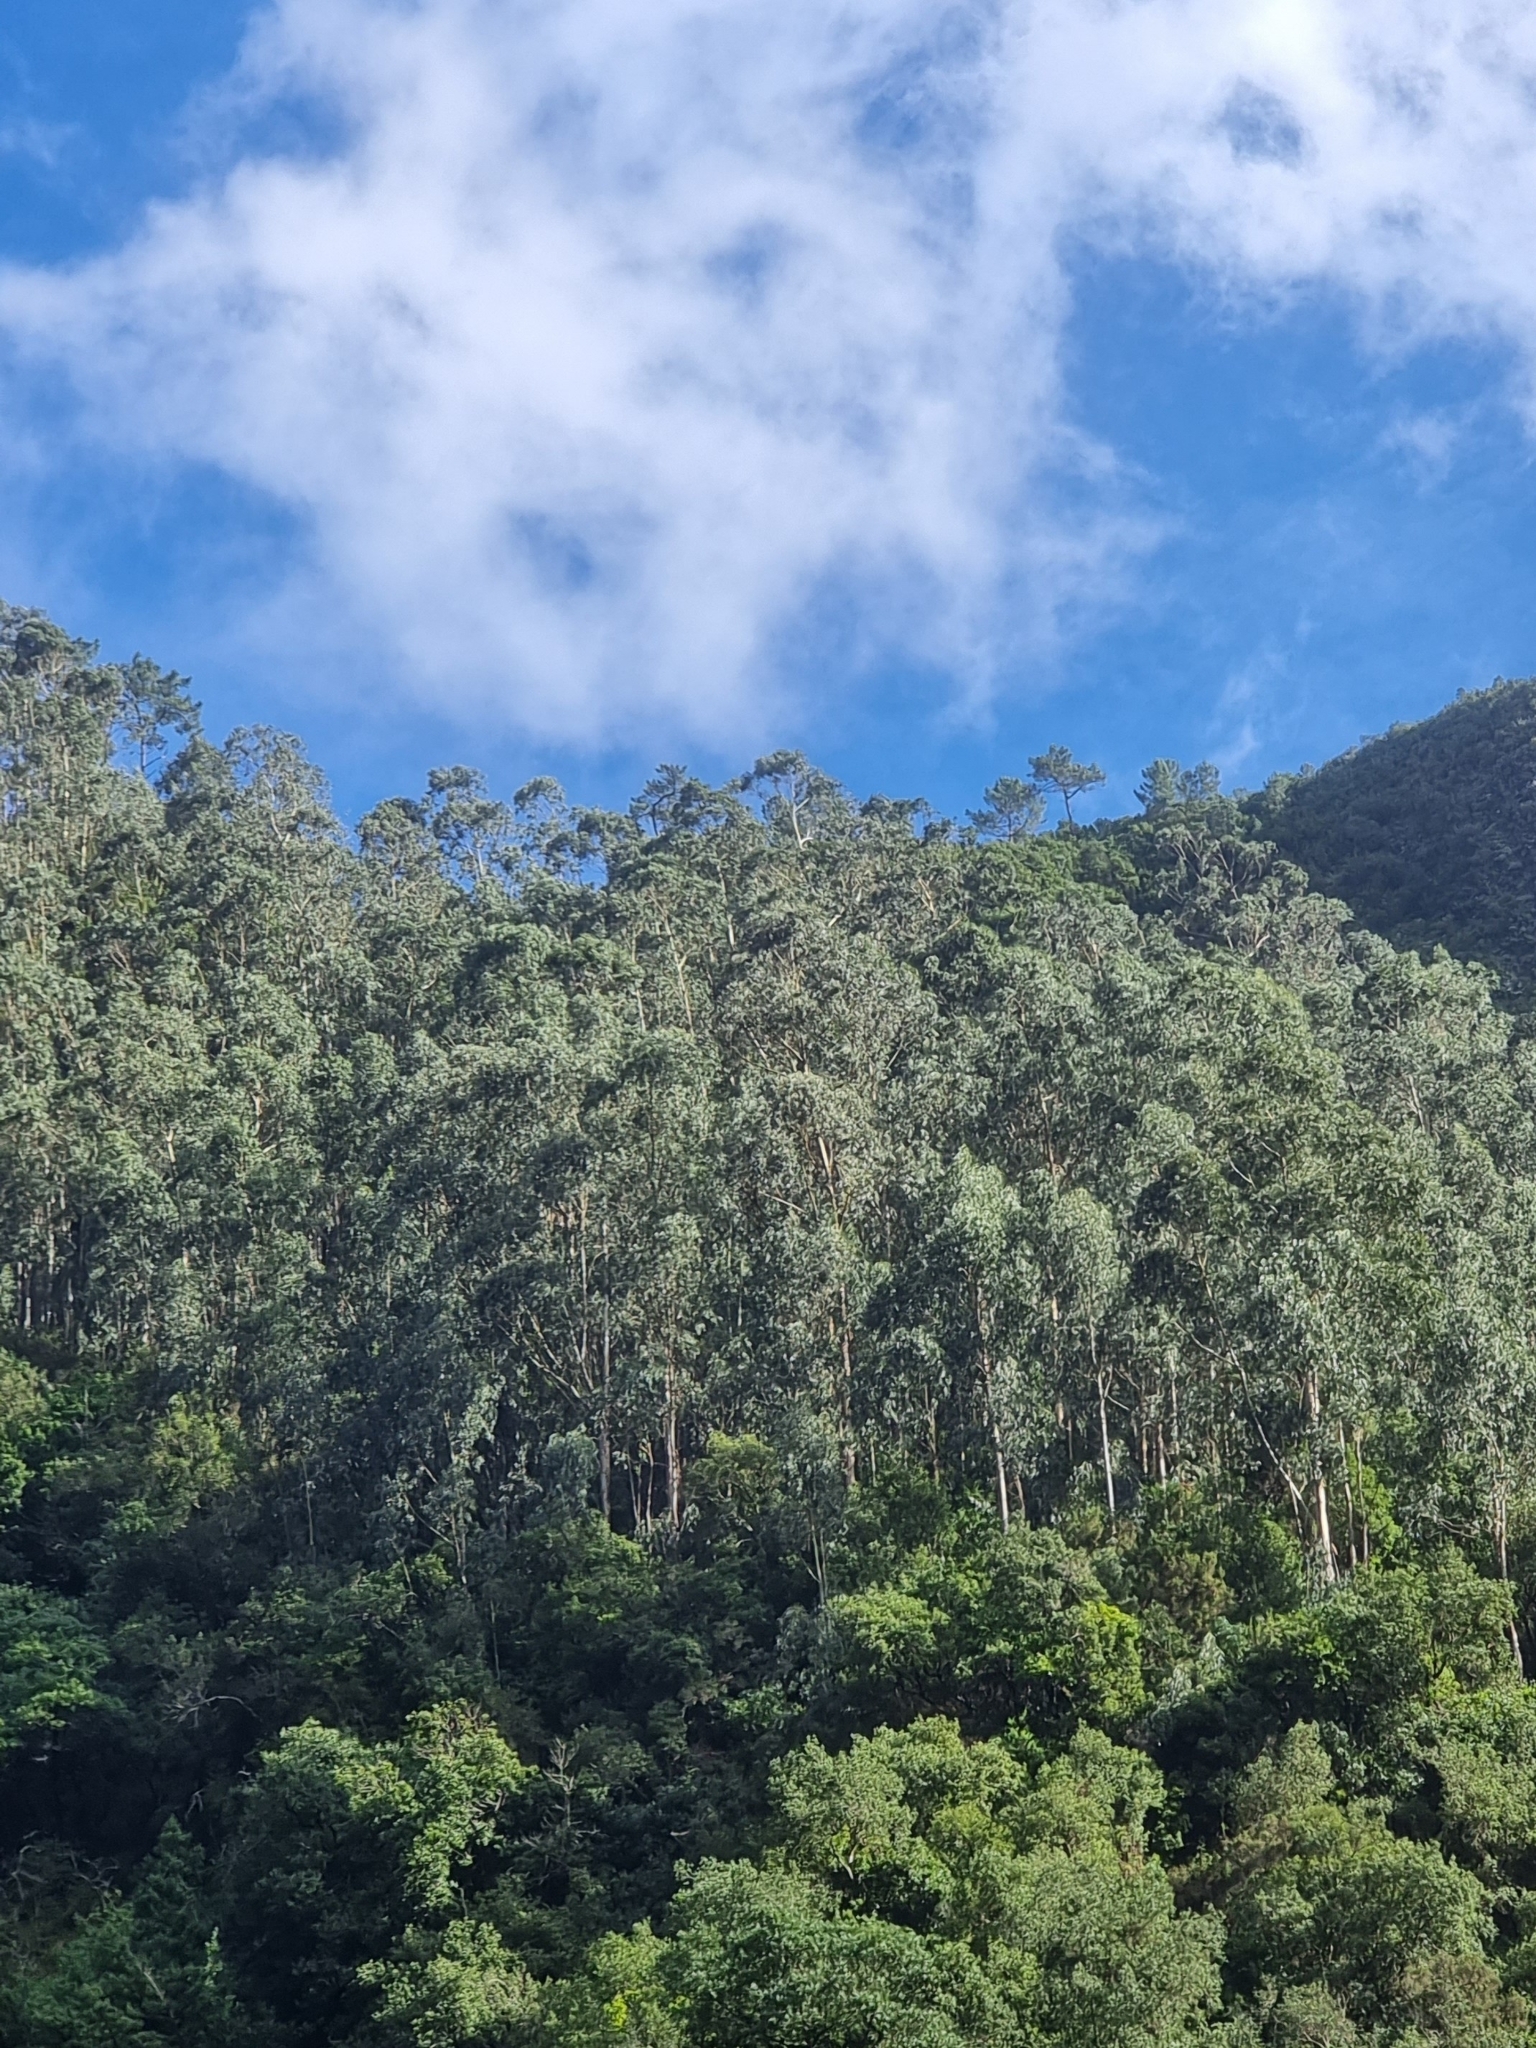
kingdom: Plantae
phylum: Tracheophyta
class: Magnoliopsida
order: Myrtales
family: Myrtaceae
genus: Eucalyptus
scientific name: Eucalyptus globulus
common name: Southern blue-gum
